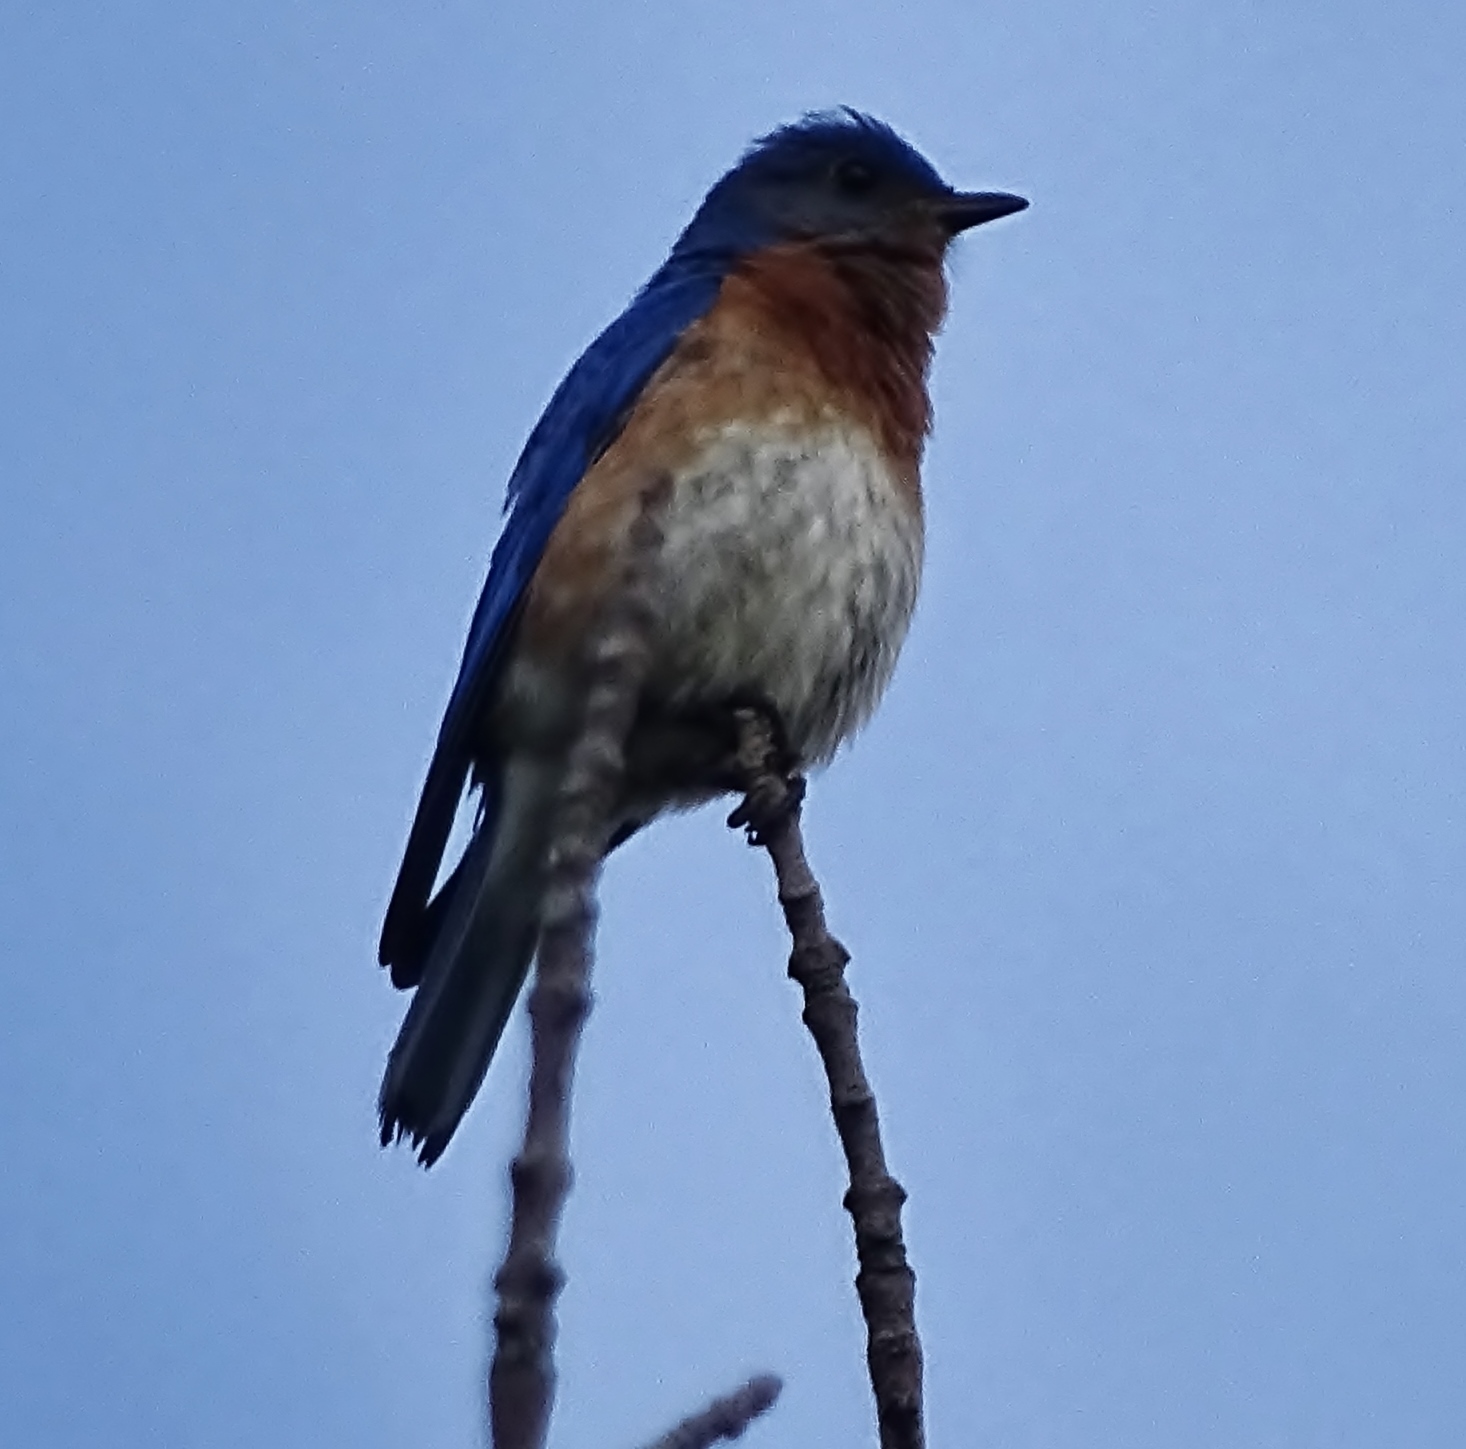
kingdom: Animalia
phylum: Chordata
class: Aves
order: Passeriformes
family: Turdidae
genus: Sialia
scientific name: Sialia sialis
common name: Eastern bluebird
